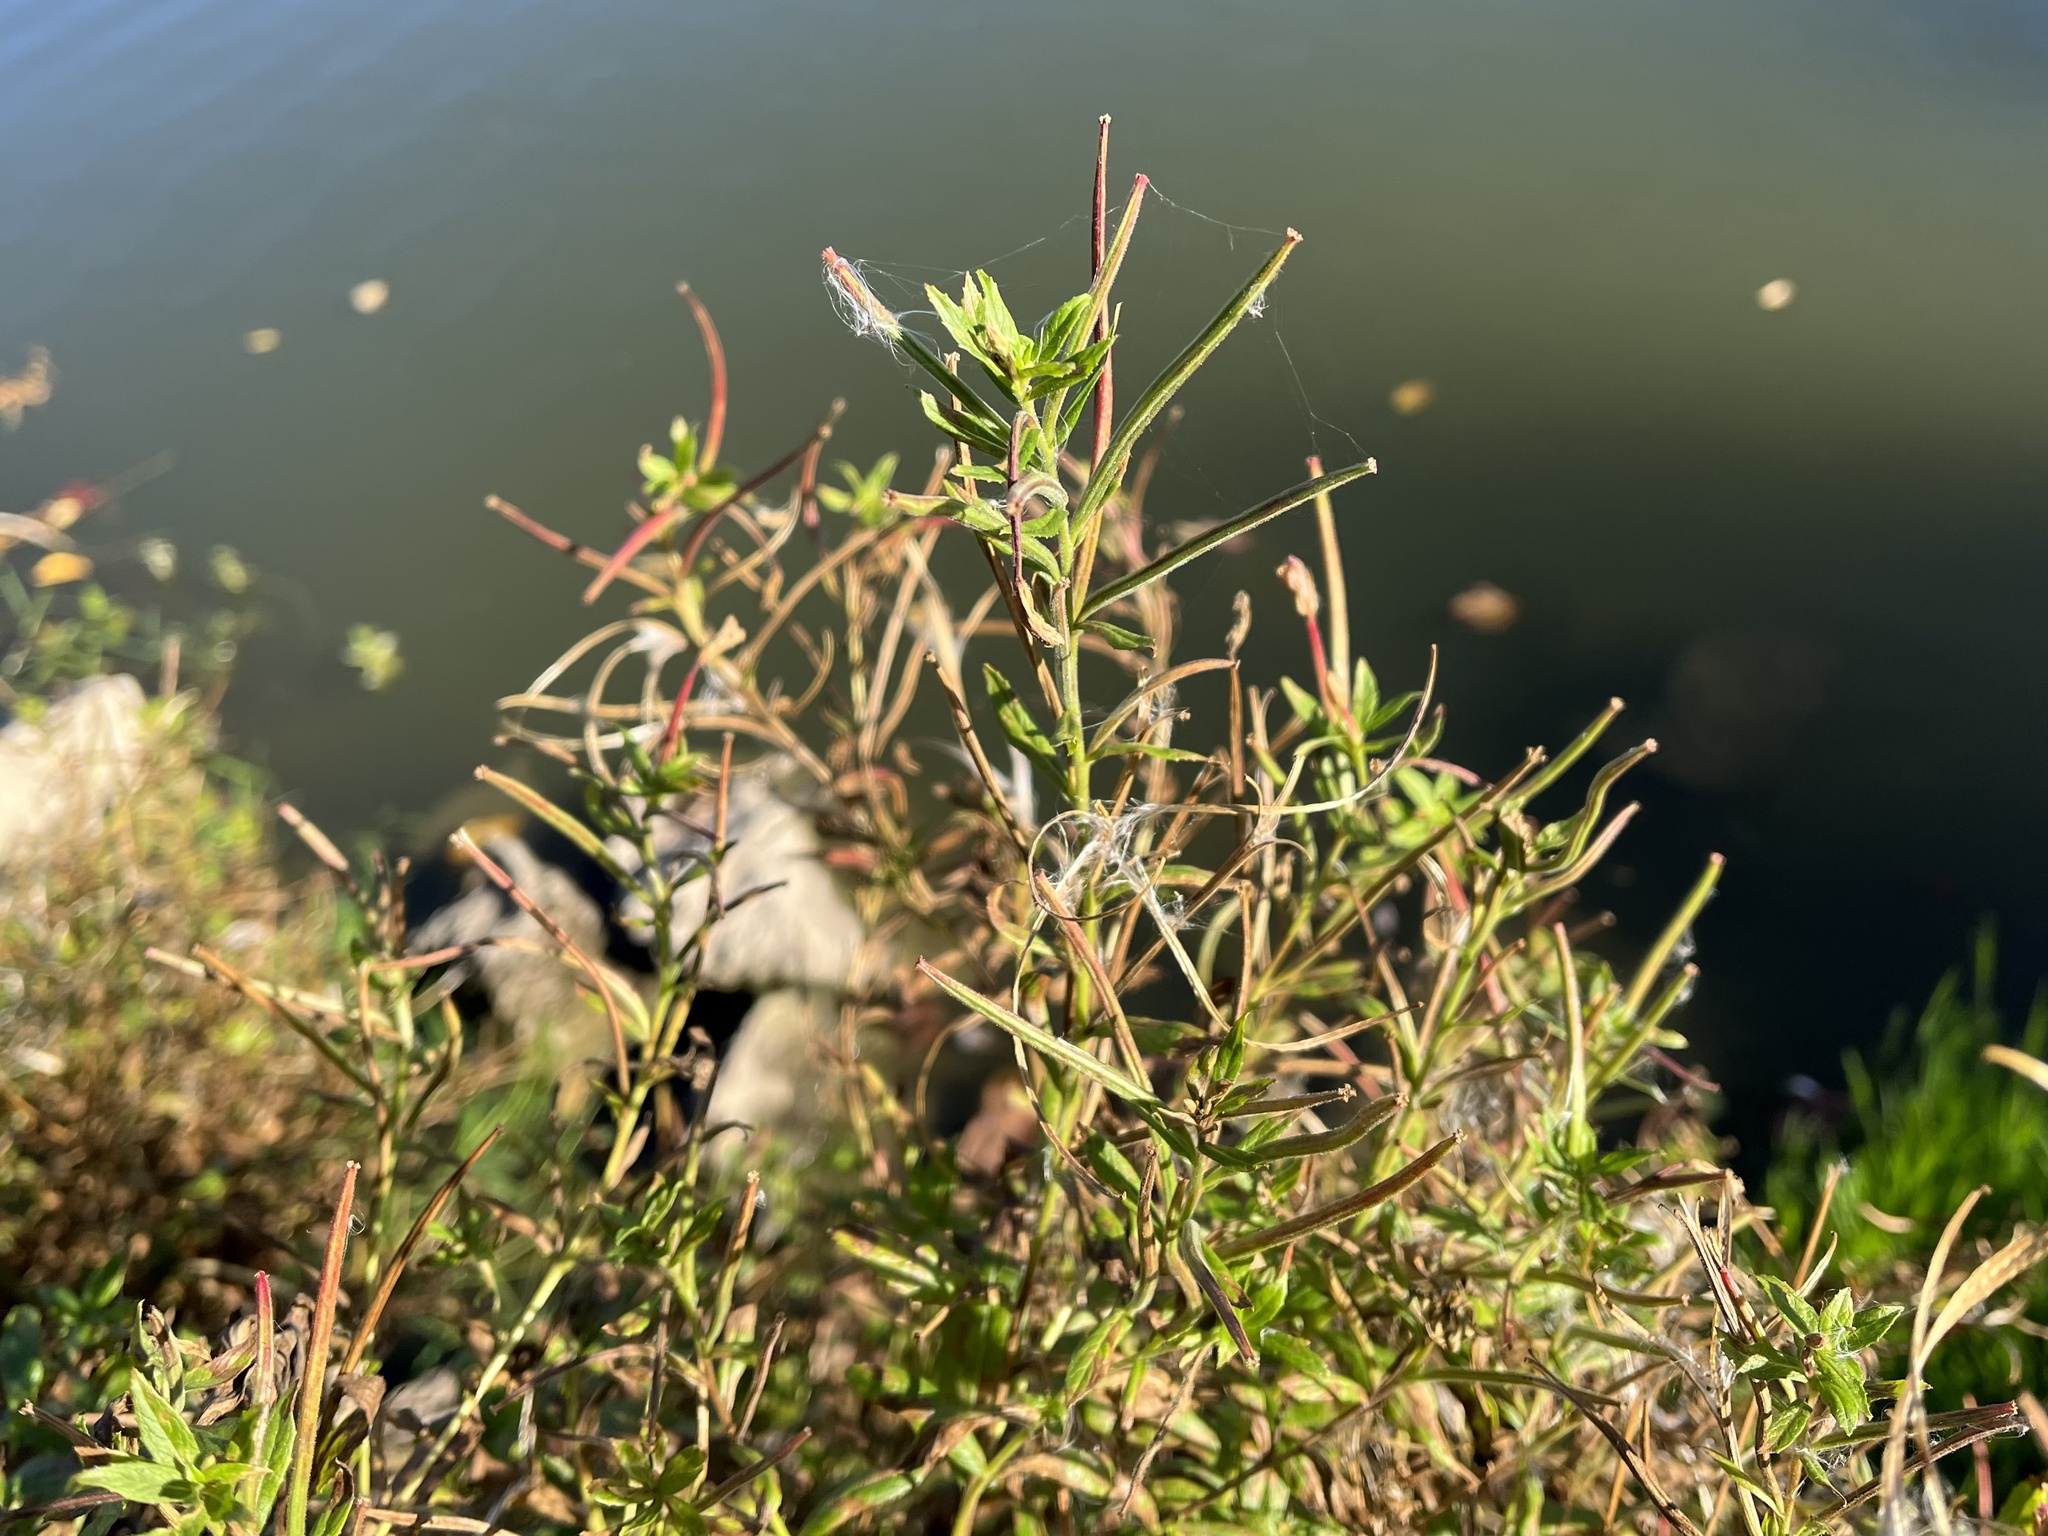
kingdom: Plantae
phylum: Tracheophyta
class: Magnoliopsida
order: Myrtales
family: Onagraceae
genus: Epilobium
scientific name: Epilobium hirsutum
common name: Great willowherb
